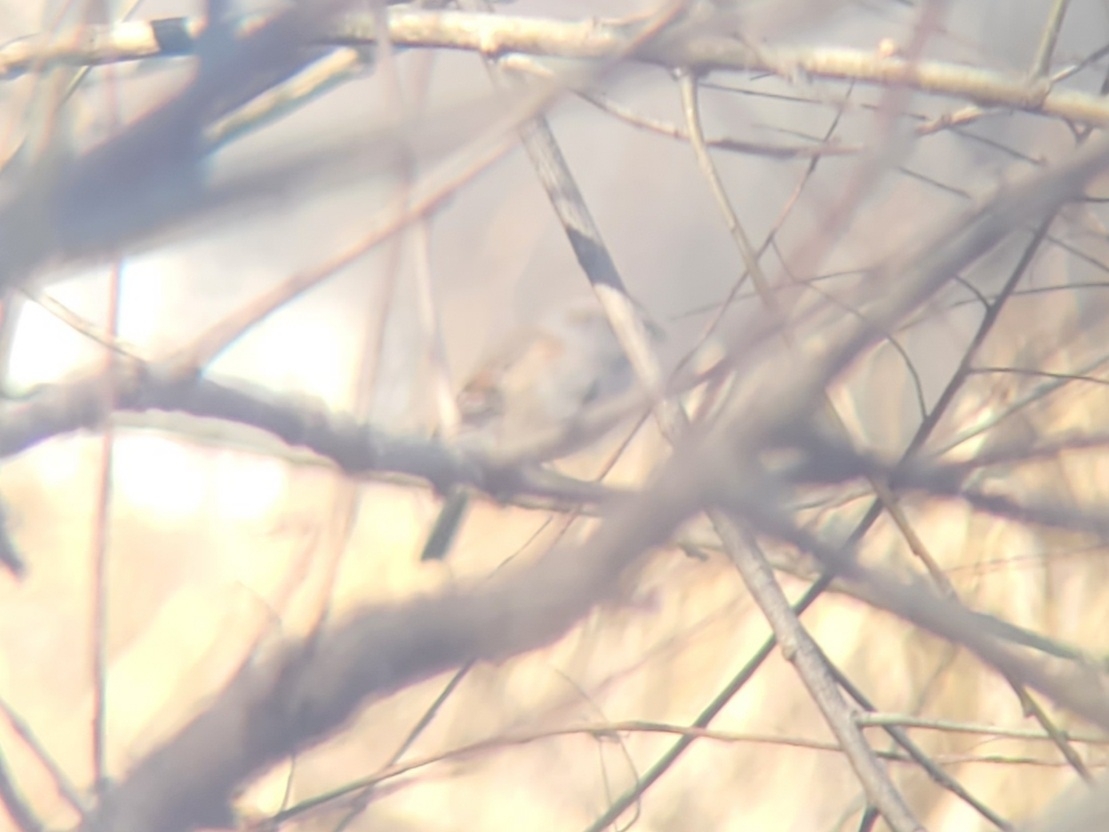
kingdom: Animalia
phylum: Chordata
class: Aves
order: Passeriformes
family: Passerellidae
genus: Spizelloides
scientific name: Spizelloides arborea
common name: American tree sparrow
